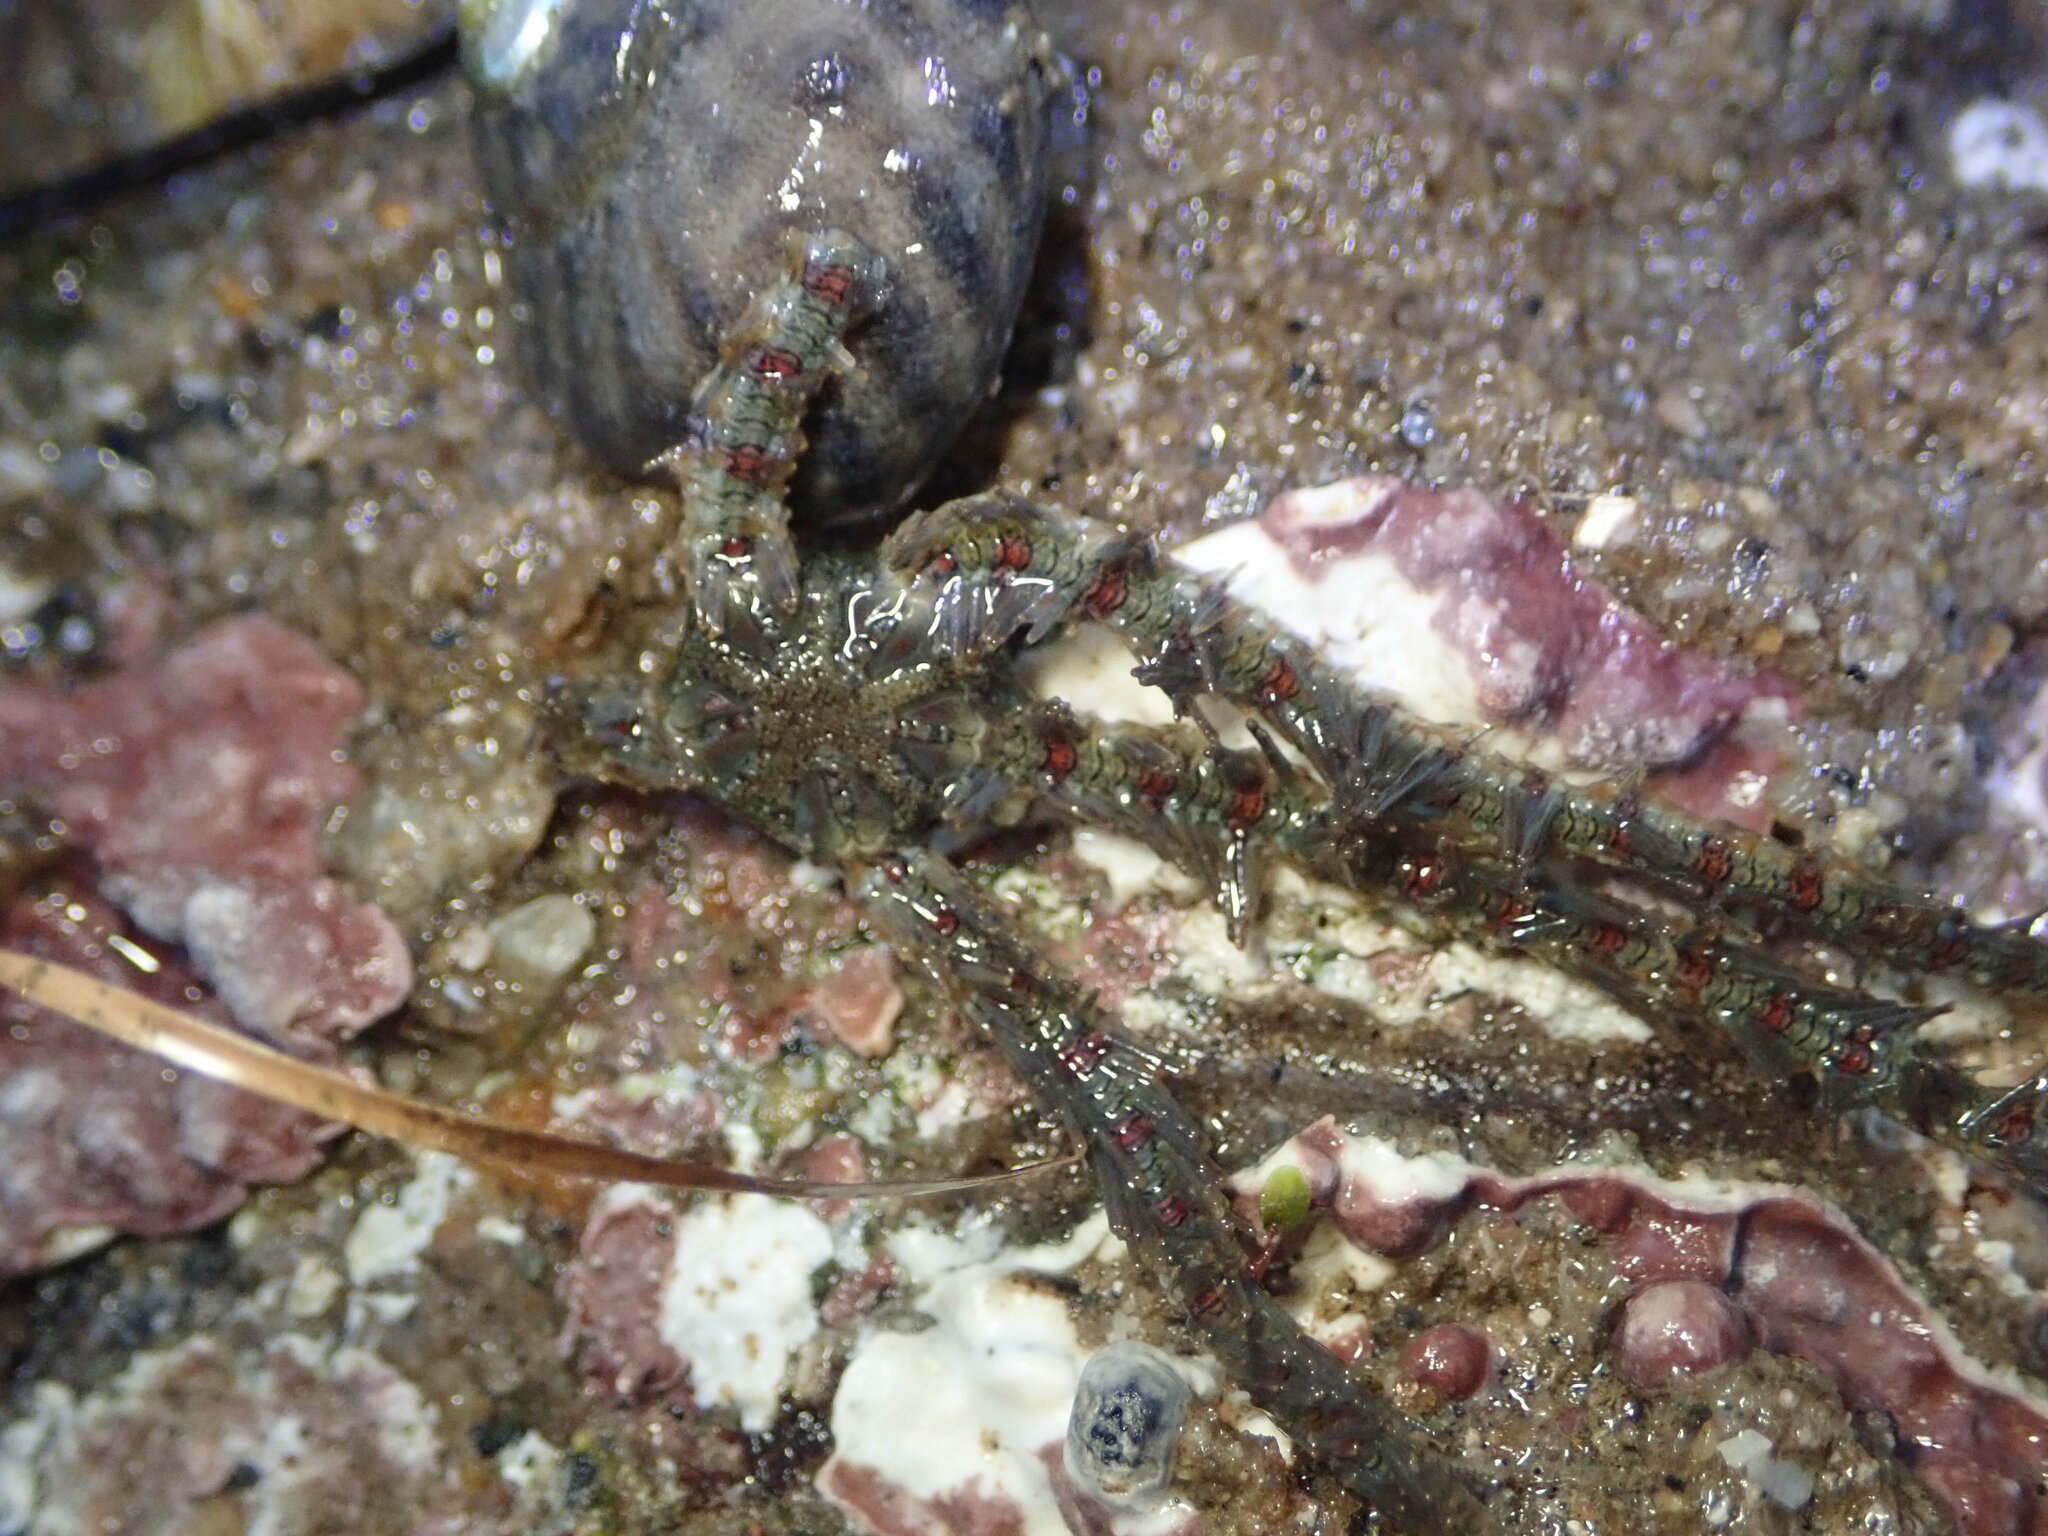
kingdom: Animalia
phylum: Echinodermata
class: Ophiuroidea
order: Amphilepidida
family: Ophiotrichidae
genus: Ophiothrix
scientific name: Ophiothrix rudis
